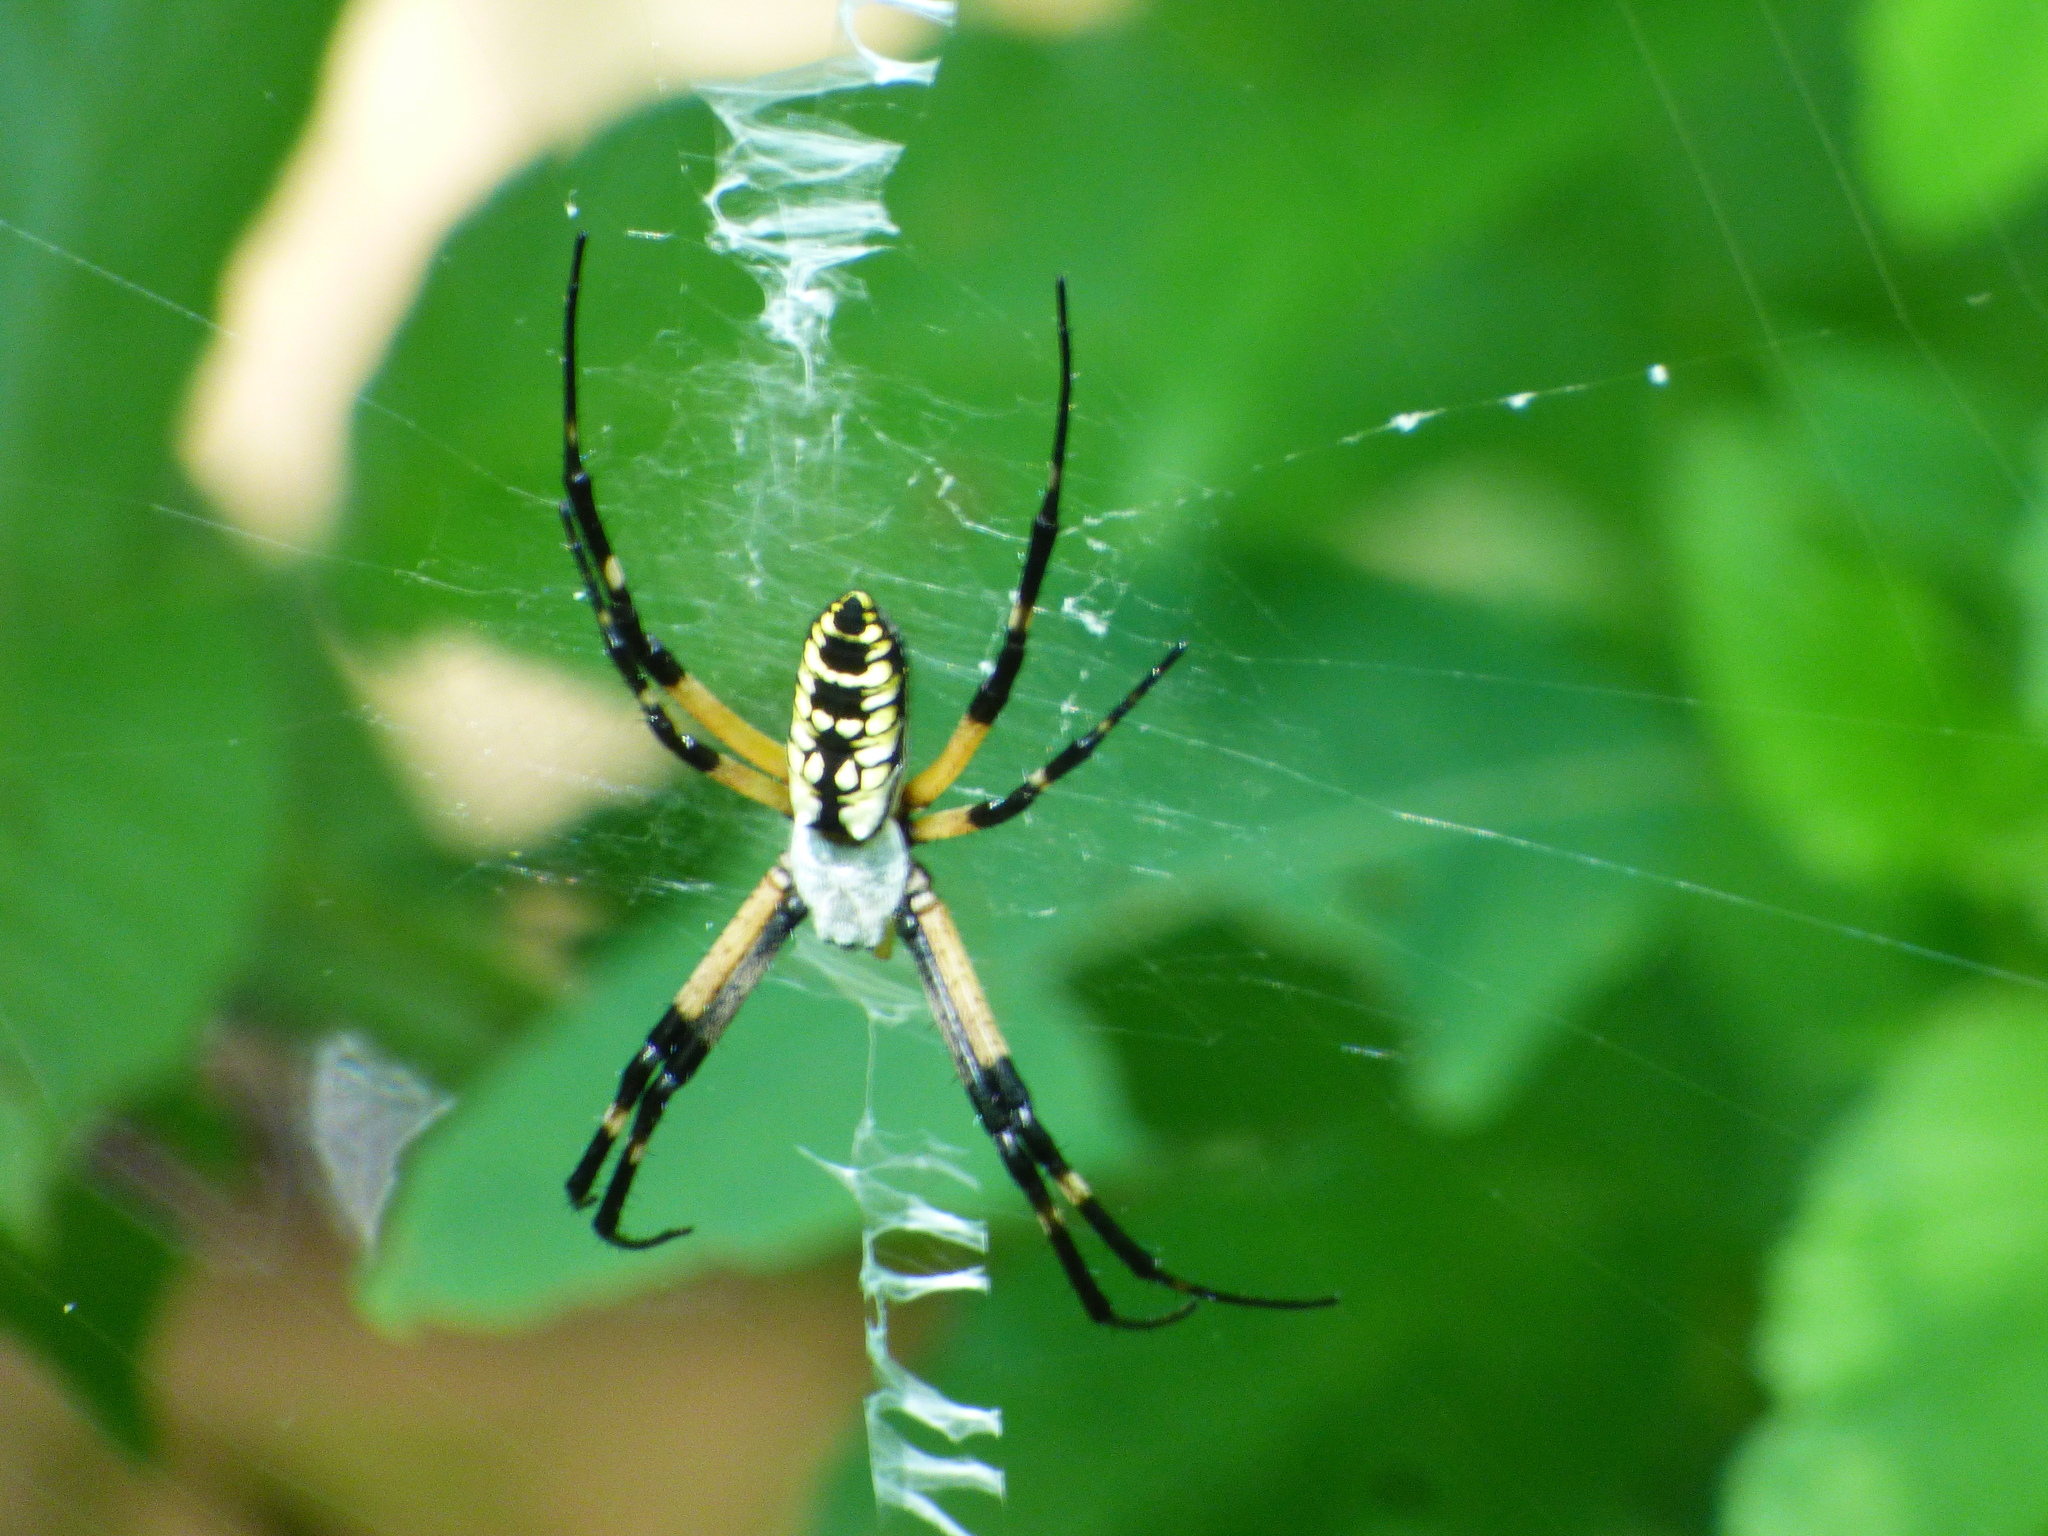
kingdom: Animalia
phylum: Arthropoda
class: Arachnida
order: Araneae
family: Araneidae
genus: Argiope
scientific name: Argiope aurantia
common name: Orb weavers
